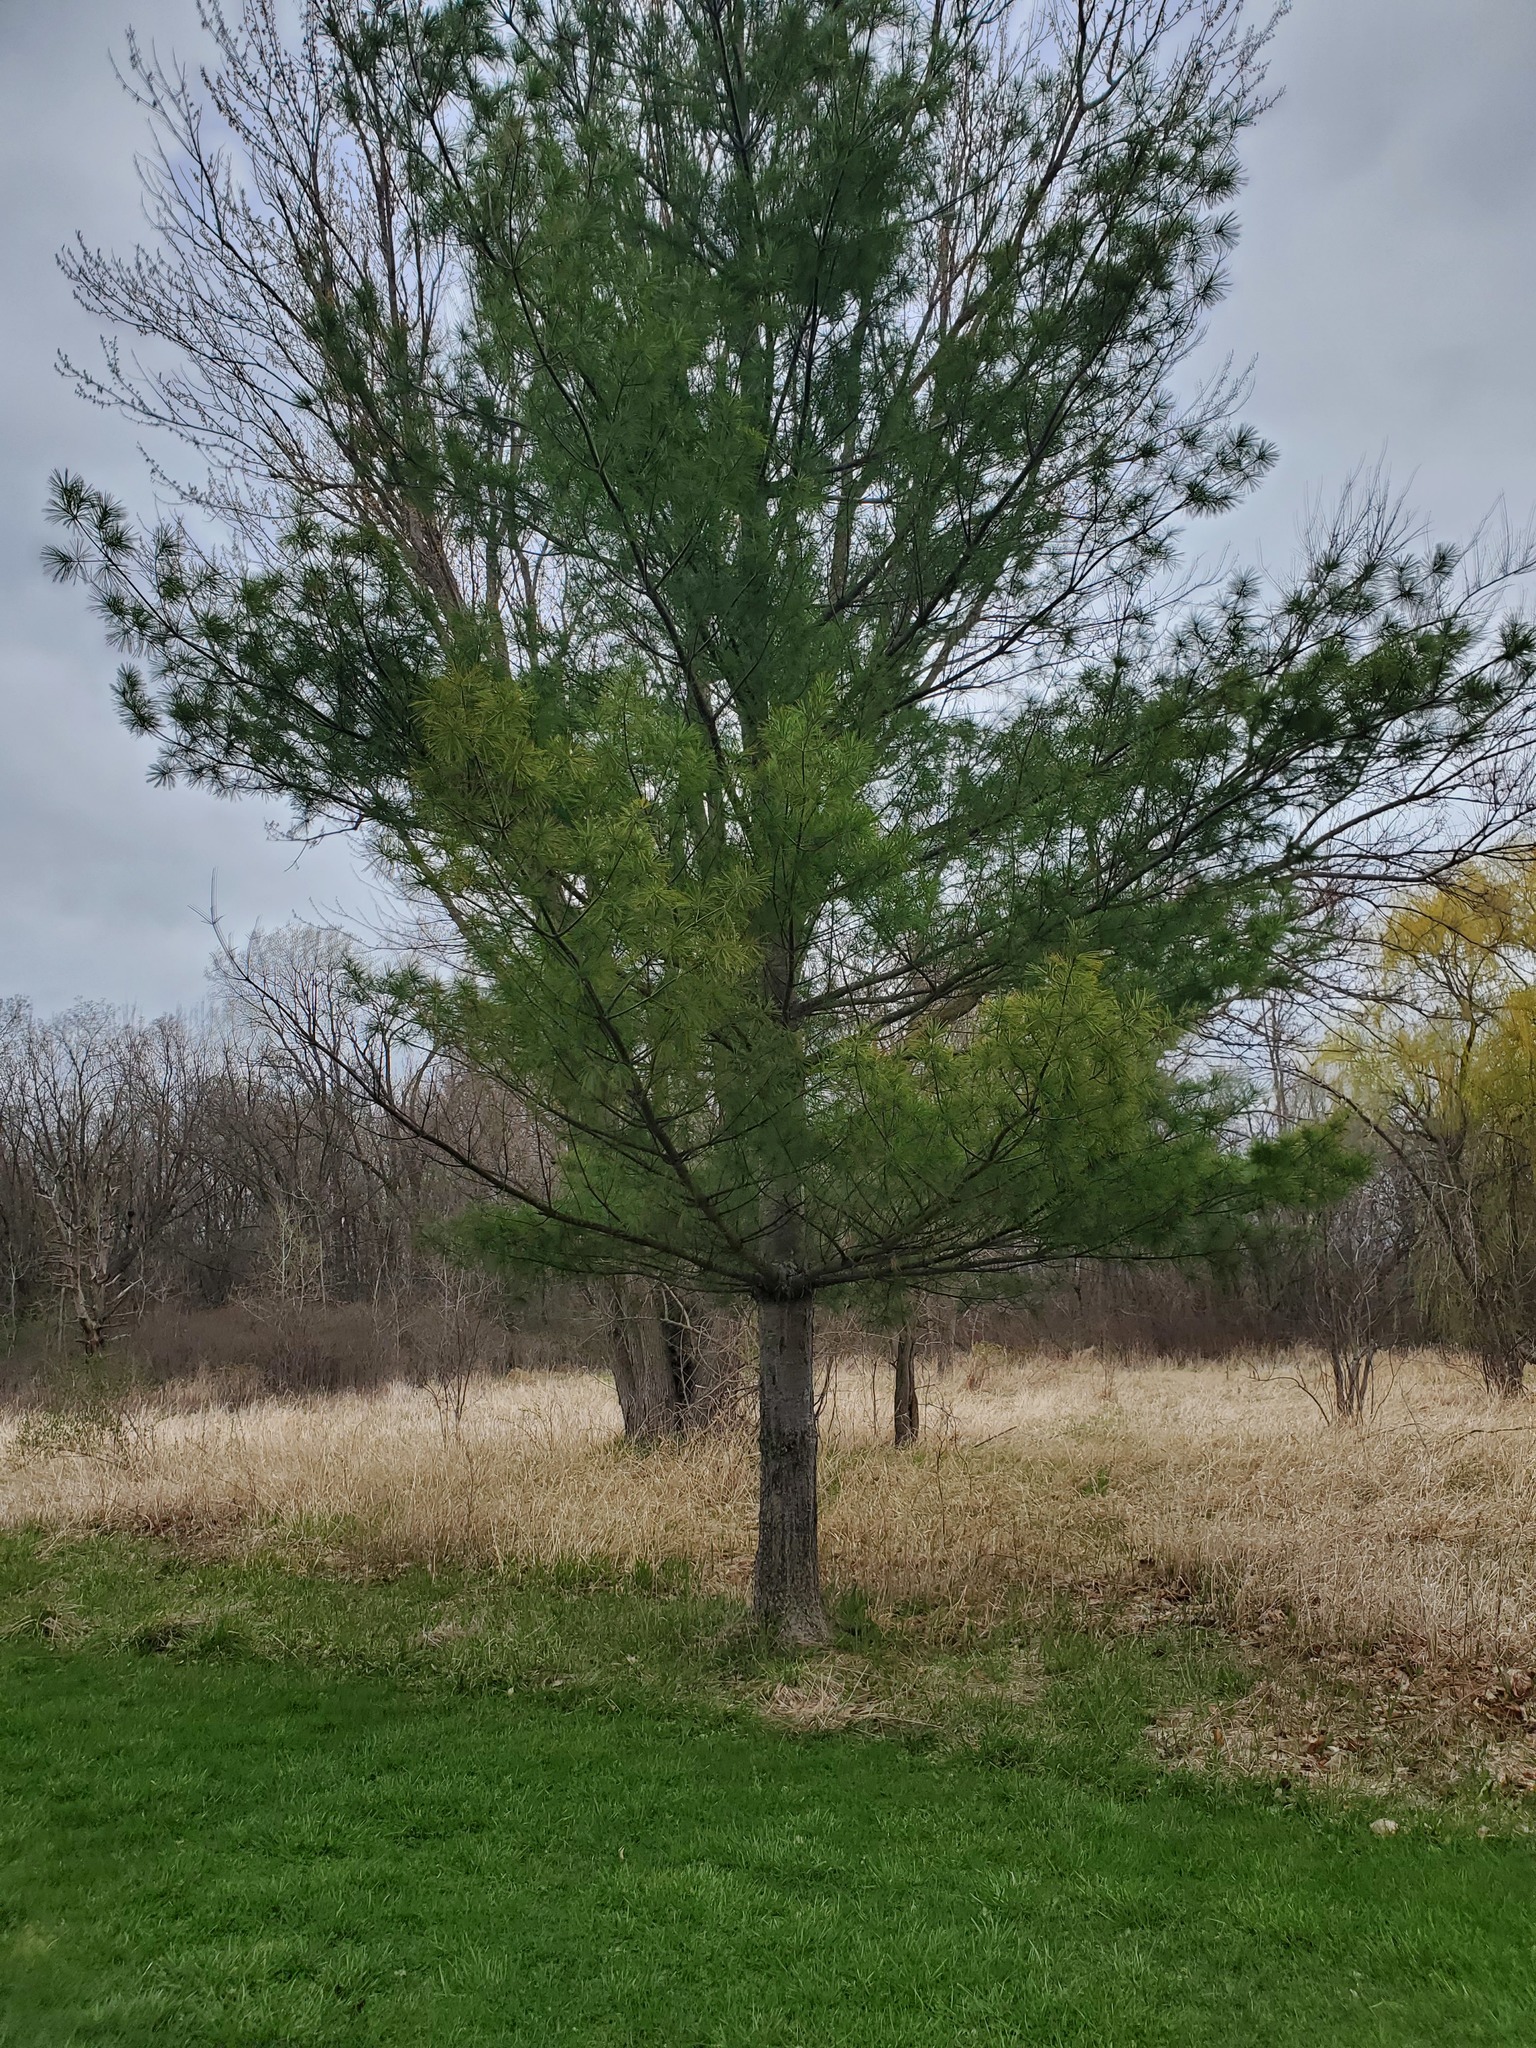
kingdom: Plantae
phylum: Tracheophyta
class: Pinopsida
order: Pinales
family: Pinaceae
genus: Pinus
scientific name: Pinus strobus
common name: Weymouth pine
